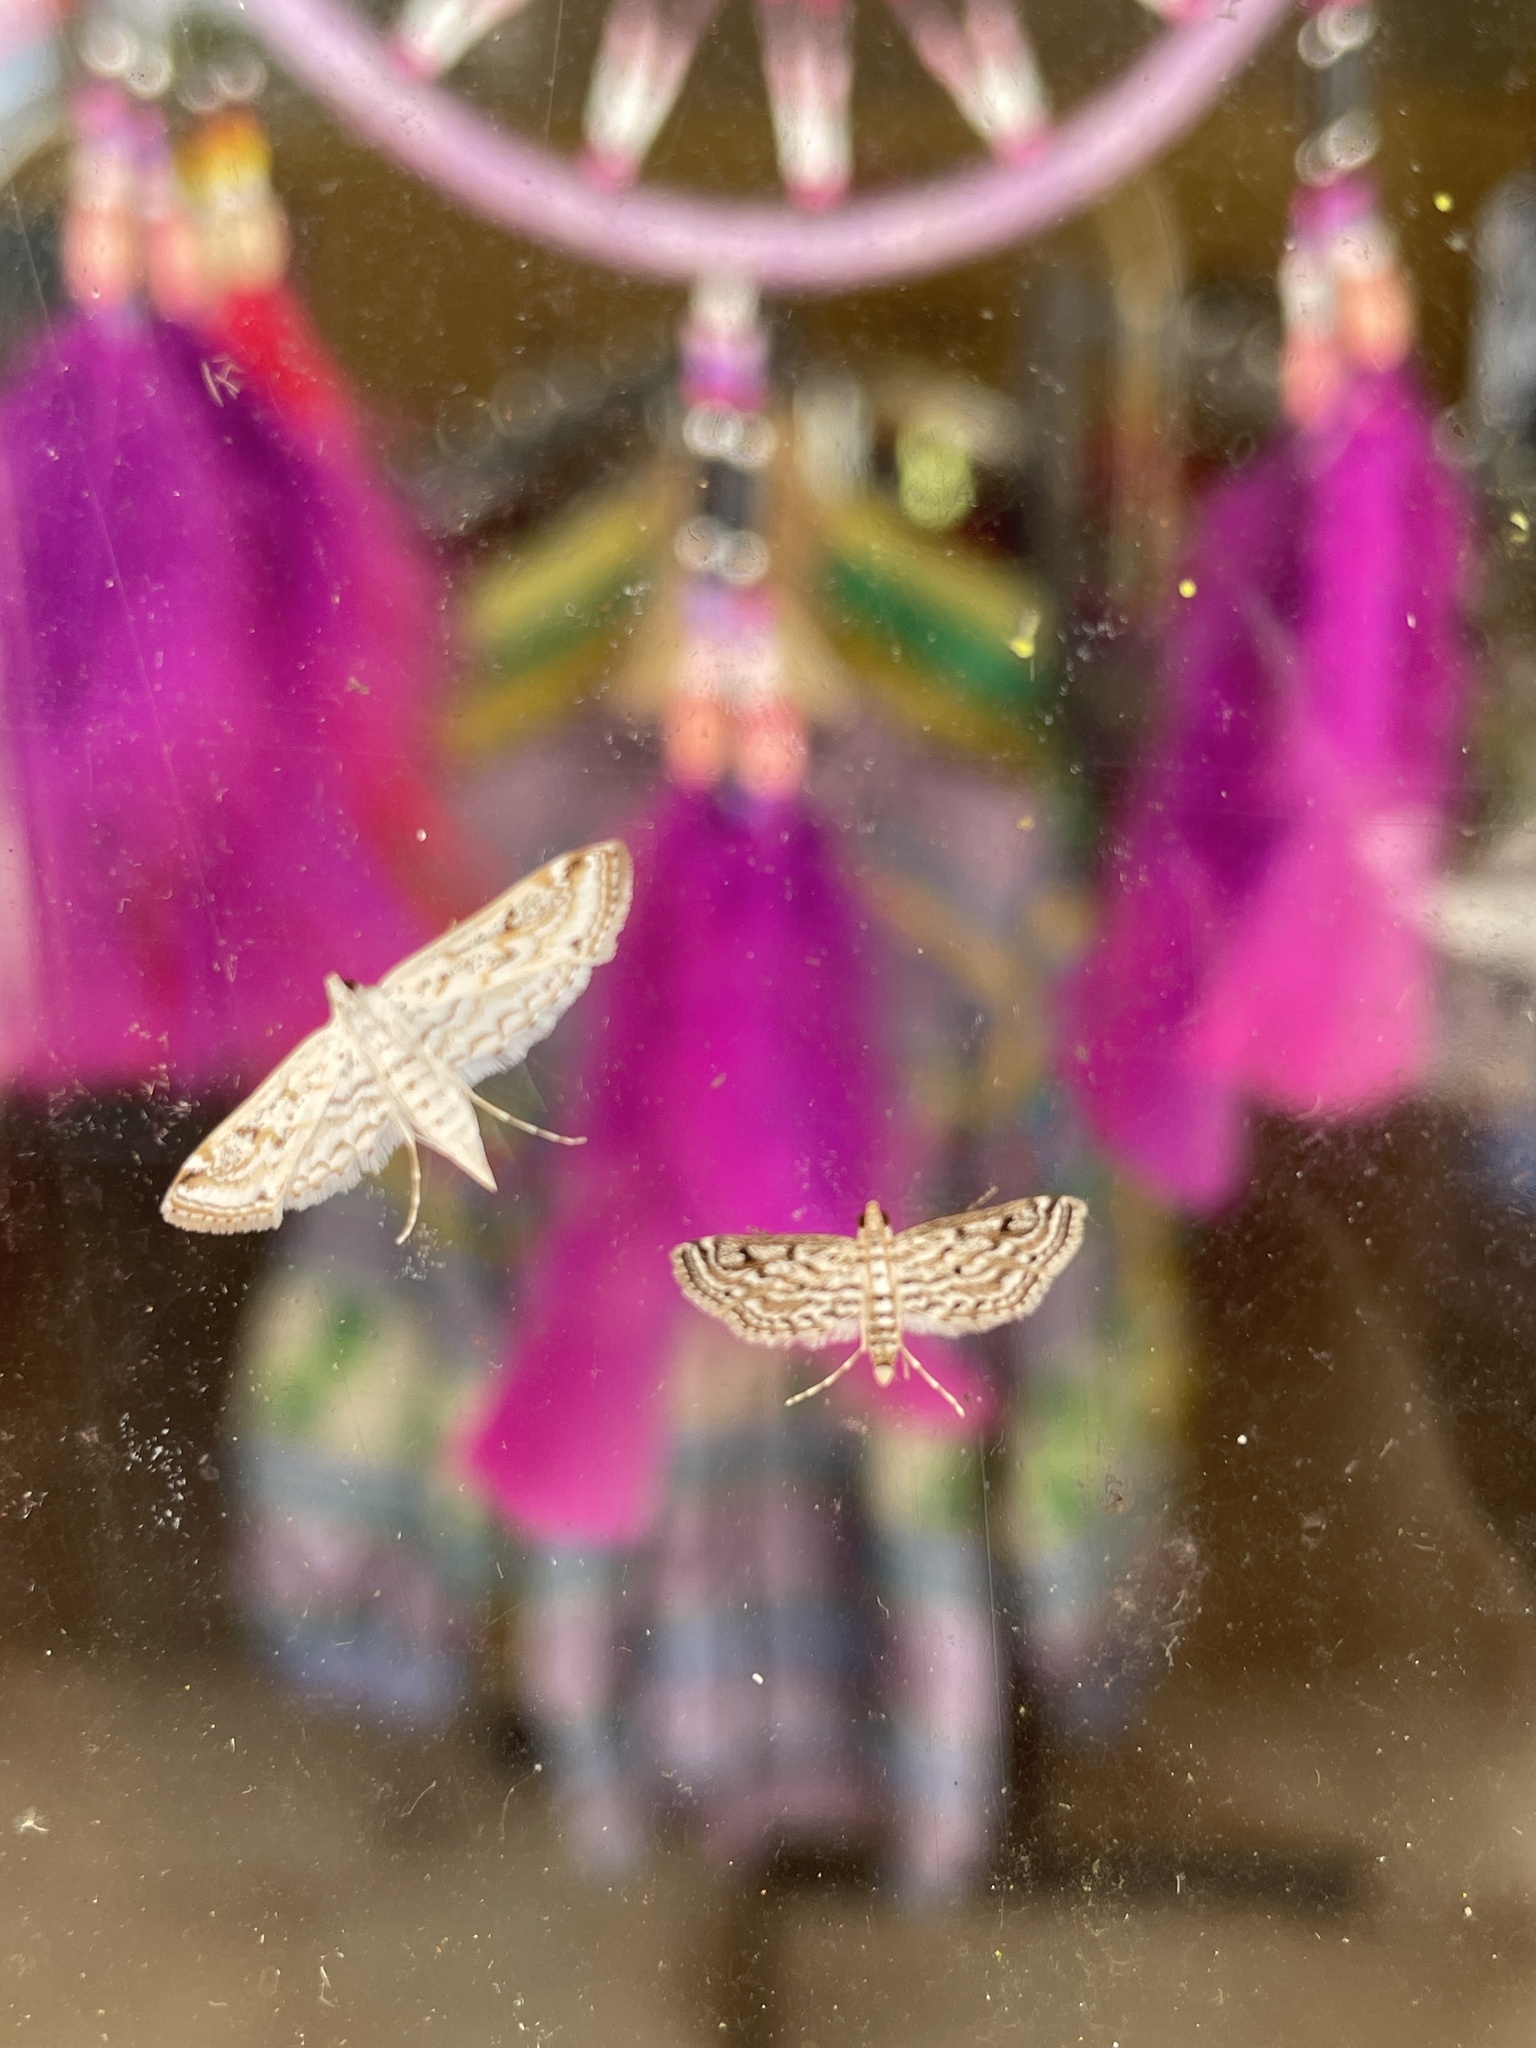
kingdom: Animalia
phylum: Arthropoda
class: Insecta
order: Lepidoptera
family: Crambidae
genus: Parapoynx
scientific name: Parapoynx allionealis
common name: Bladderwort casemaker
